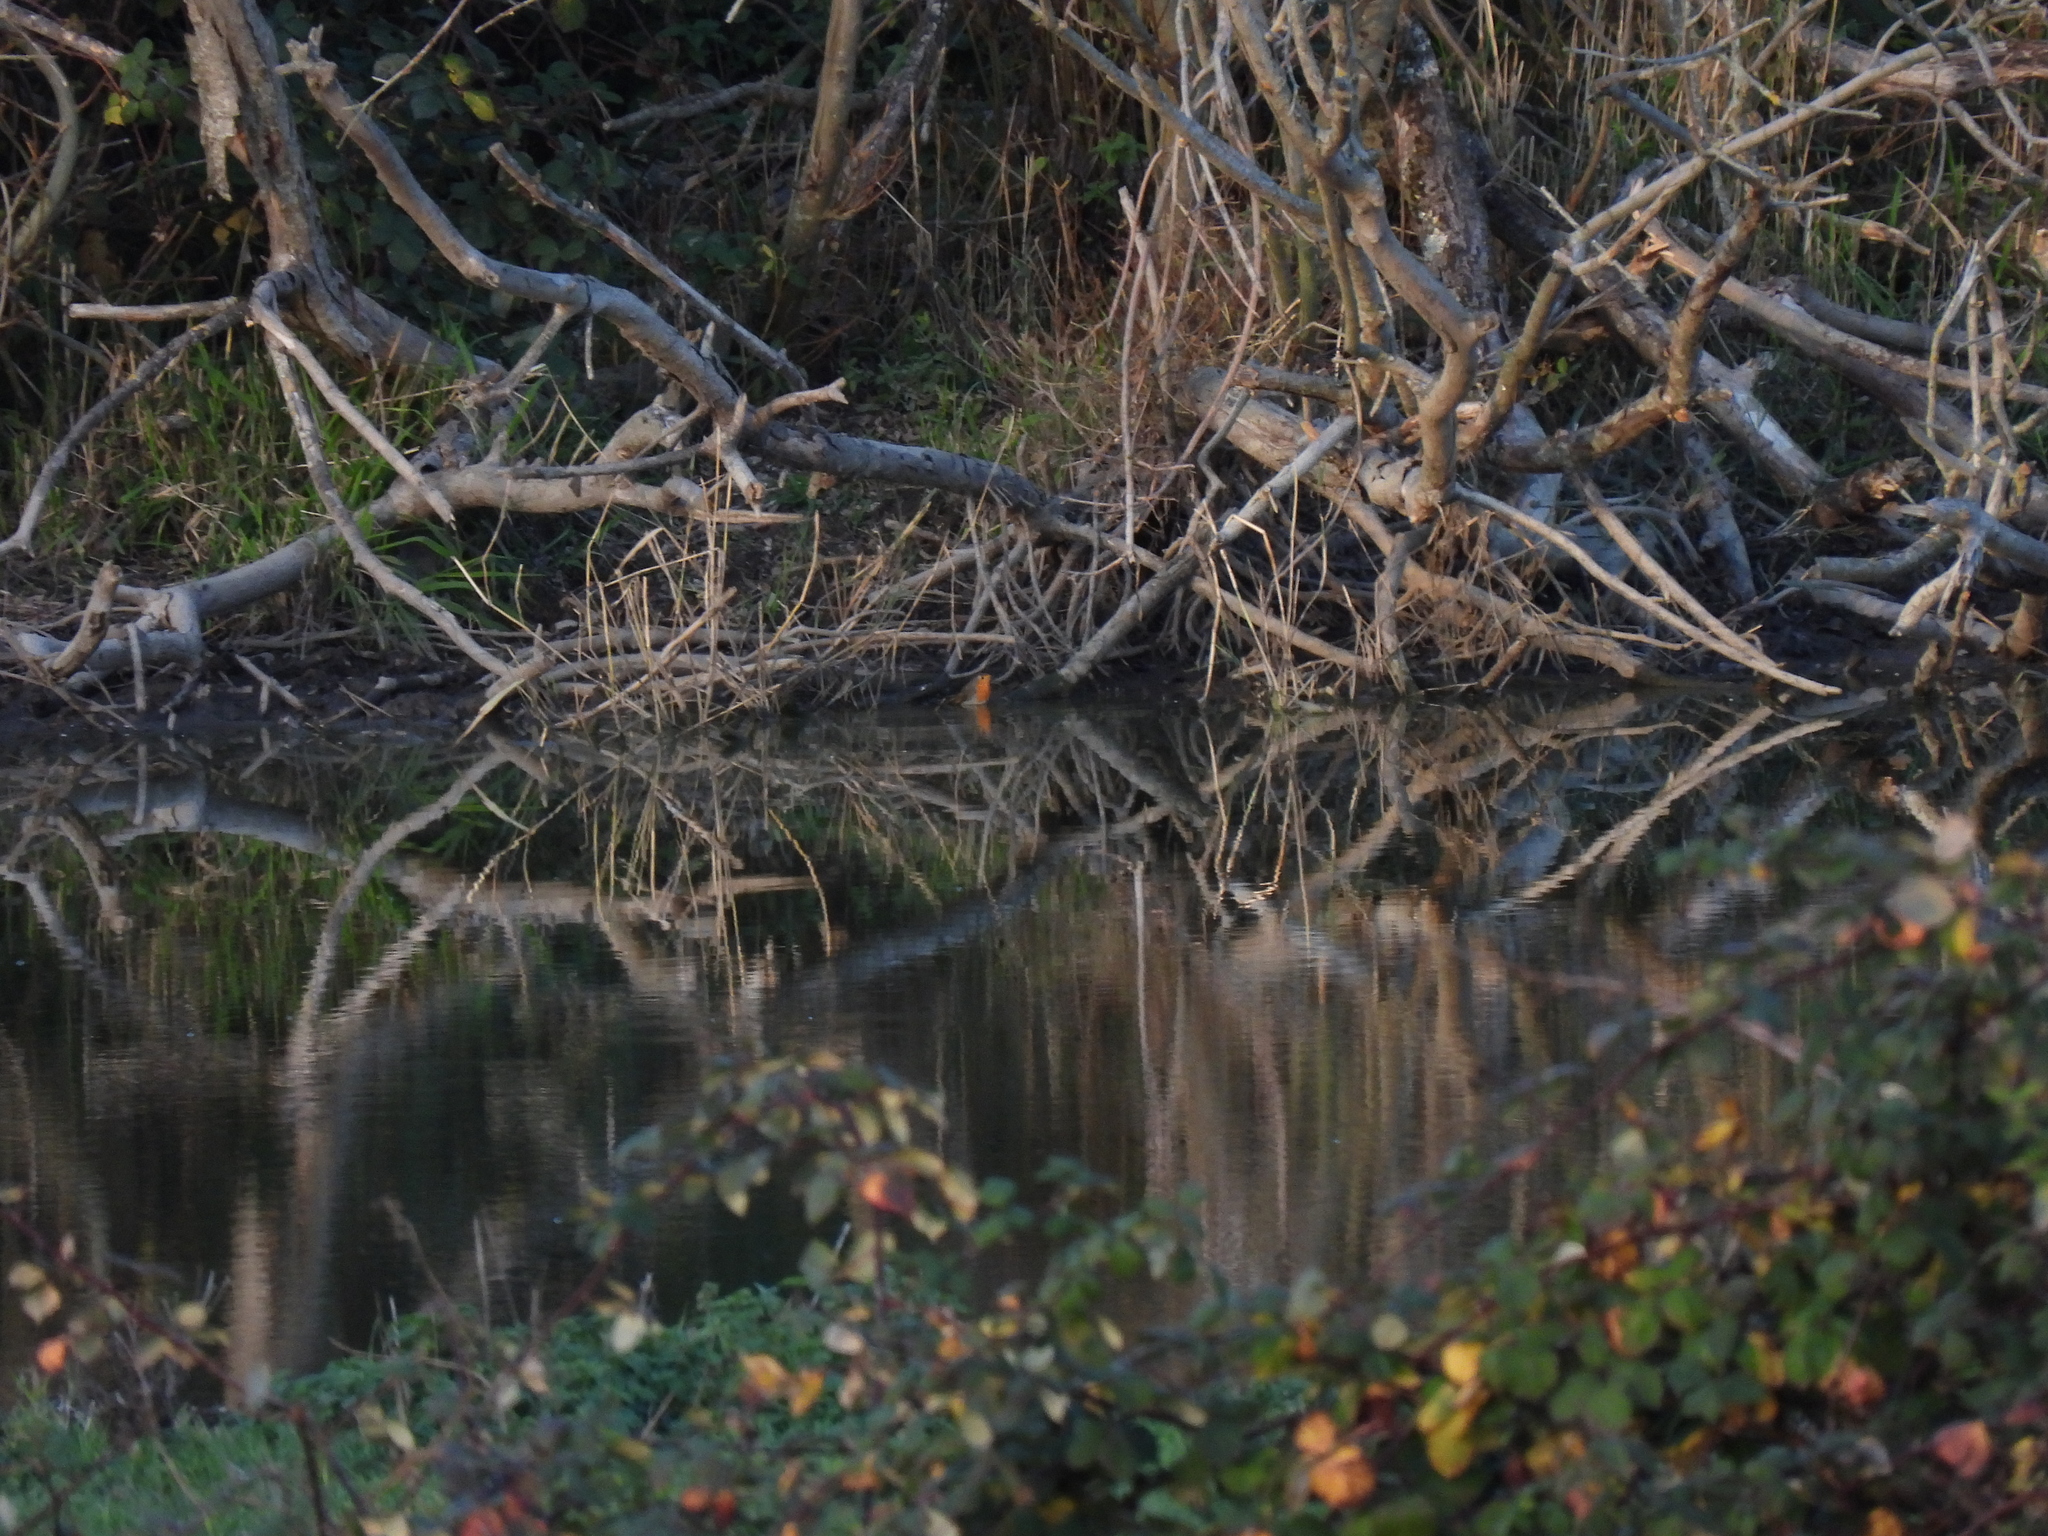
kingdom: Animalia
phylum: Chordata
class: Aves
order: Passeriformes
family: Muscicapidae
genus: Erithacus
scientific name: Erithacus rubecula
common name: European robin
